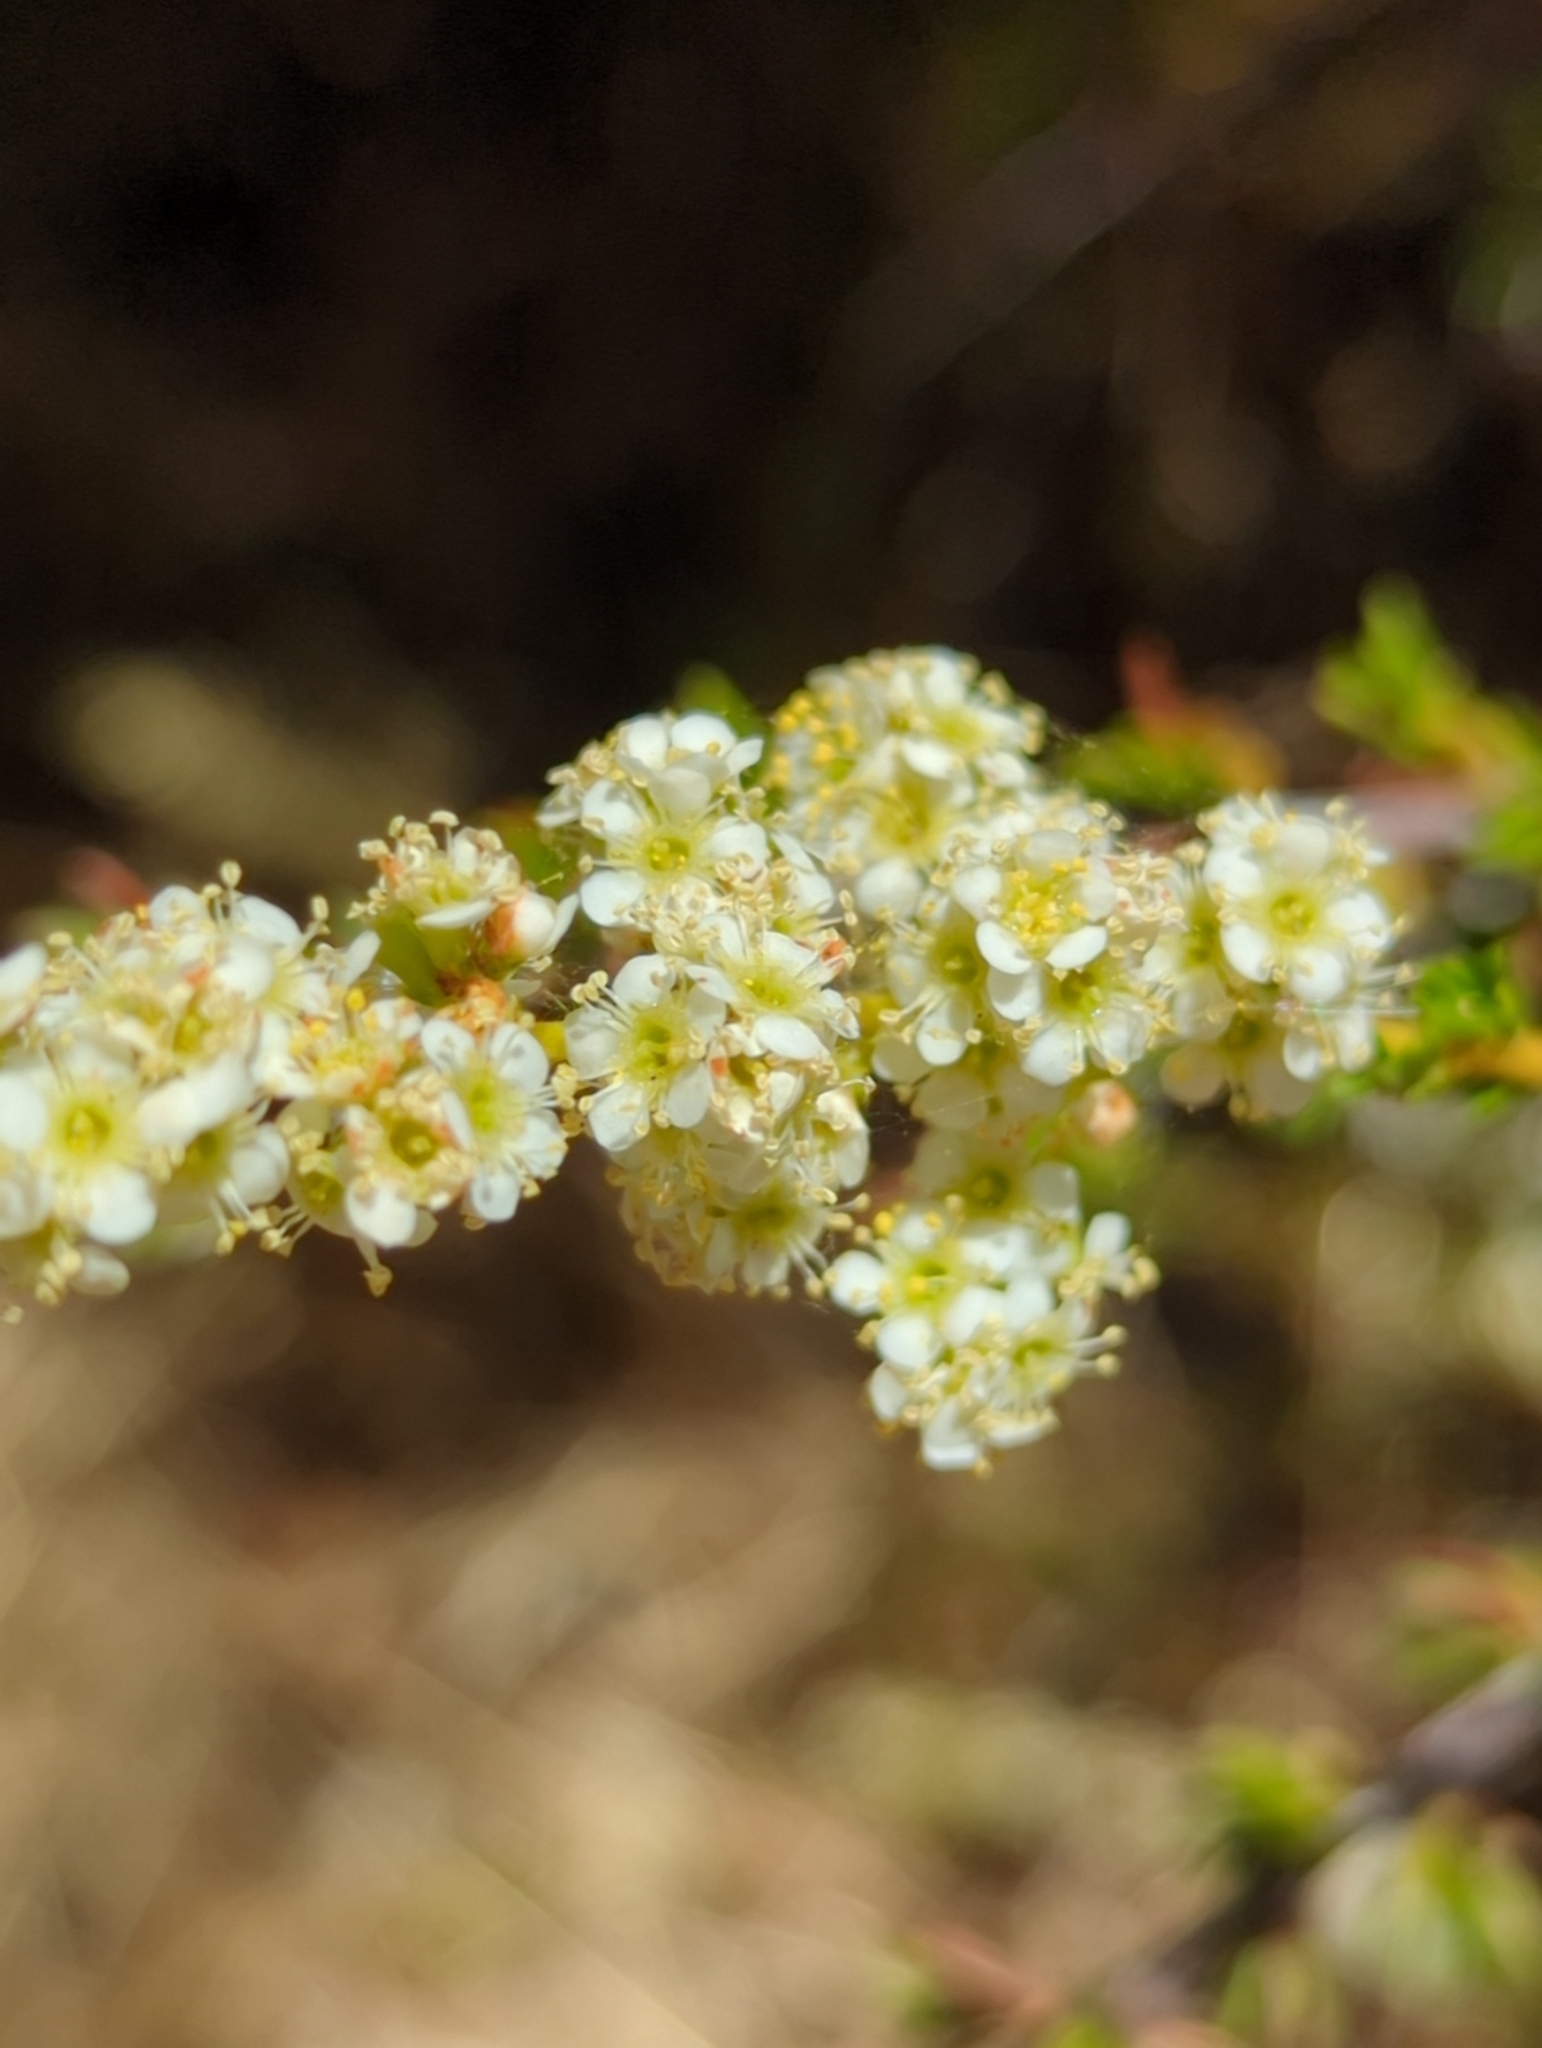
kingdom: Plantae
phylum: Tracheophyta
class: Magnoliopsida
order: Rosales
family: Rosaceae
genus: Adenostoma
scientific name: Adenostoma fasciculatum
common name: Chamise
